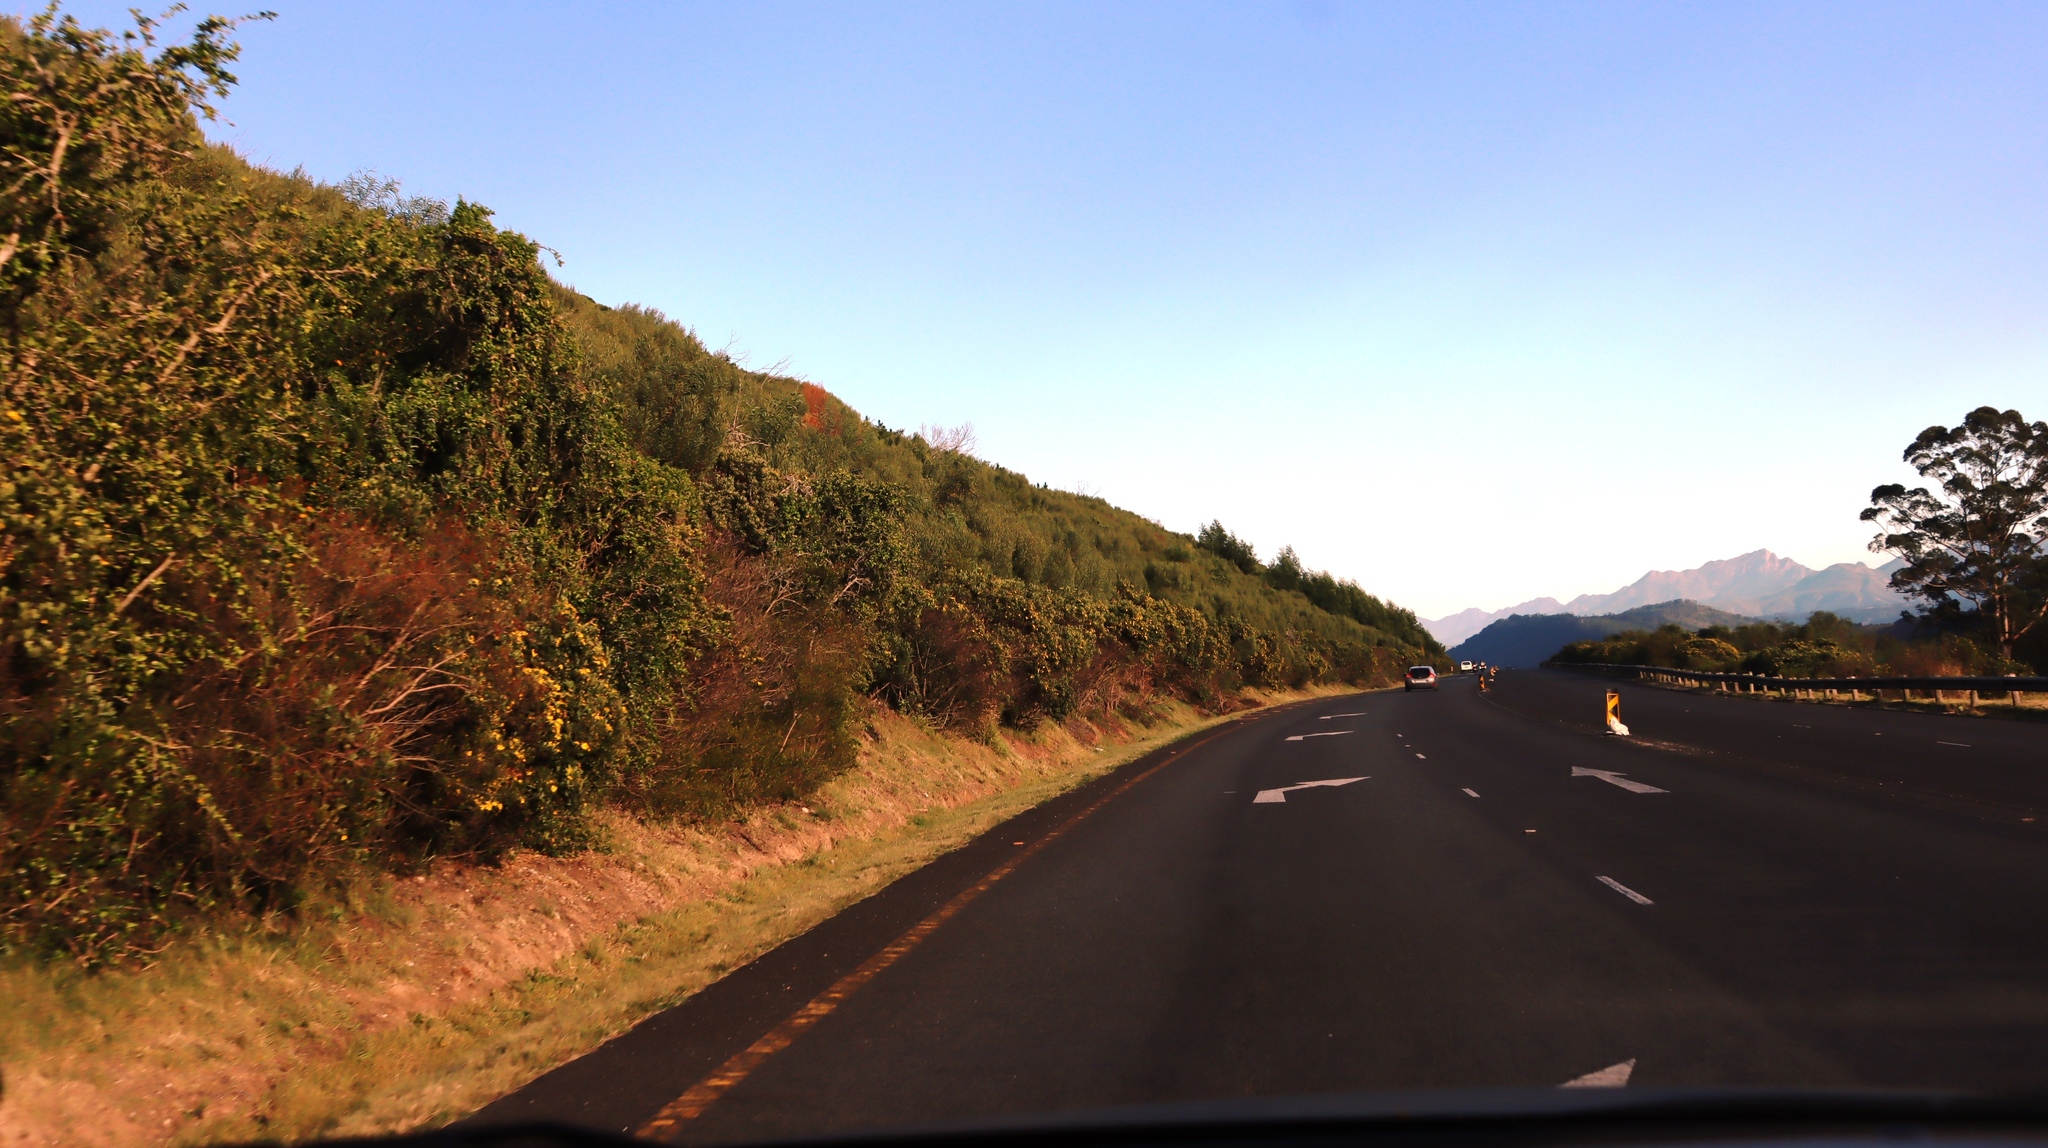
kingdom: Plantae
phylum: Tracheophyta
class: Magnoliopsida
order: Asterales
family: Asteraceae
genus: Osteospermum
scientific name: Osteospermum moniliferum
